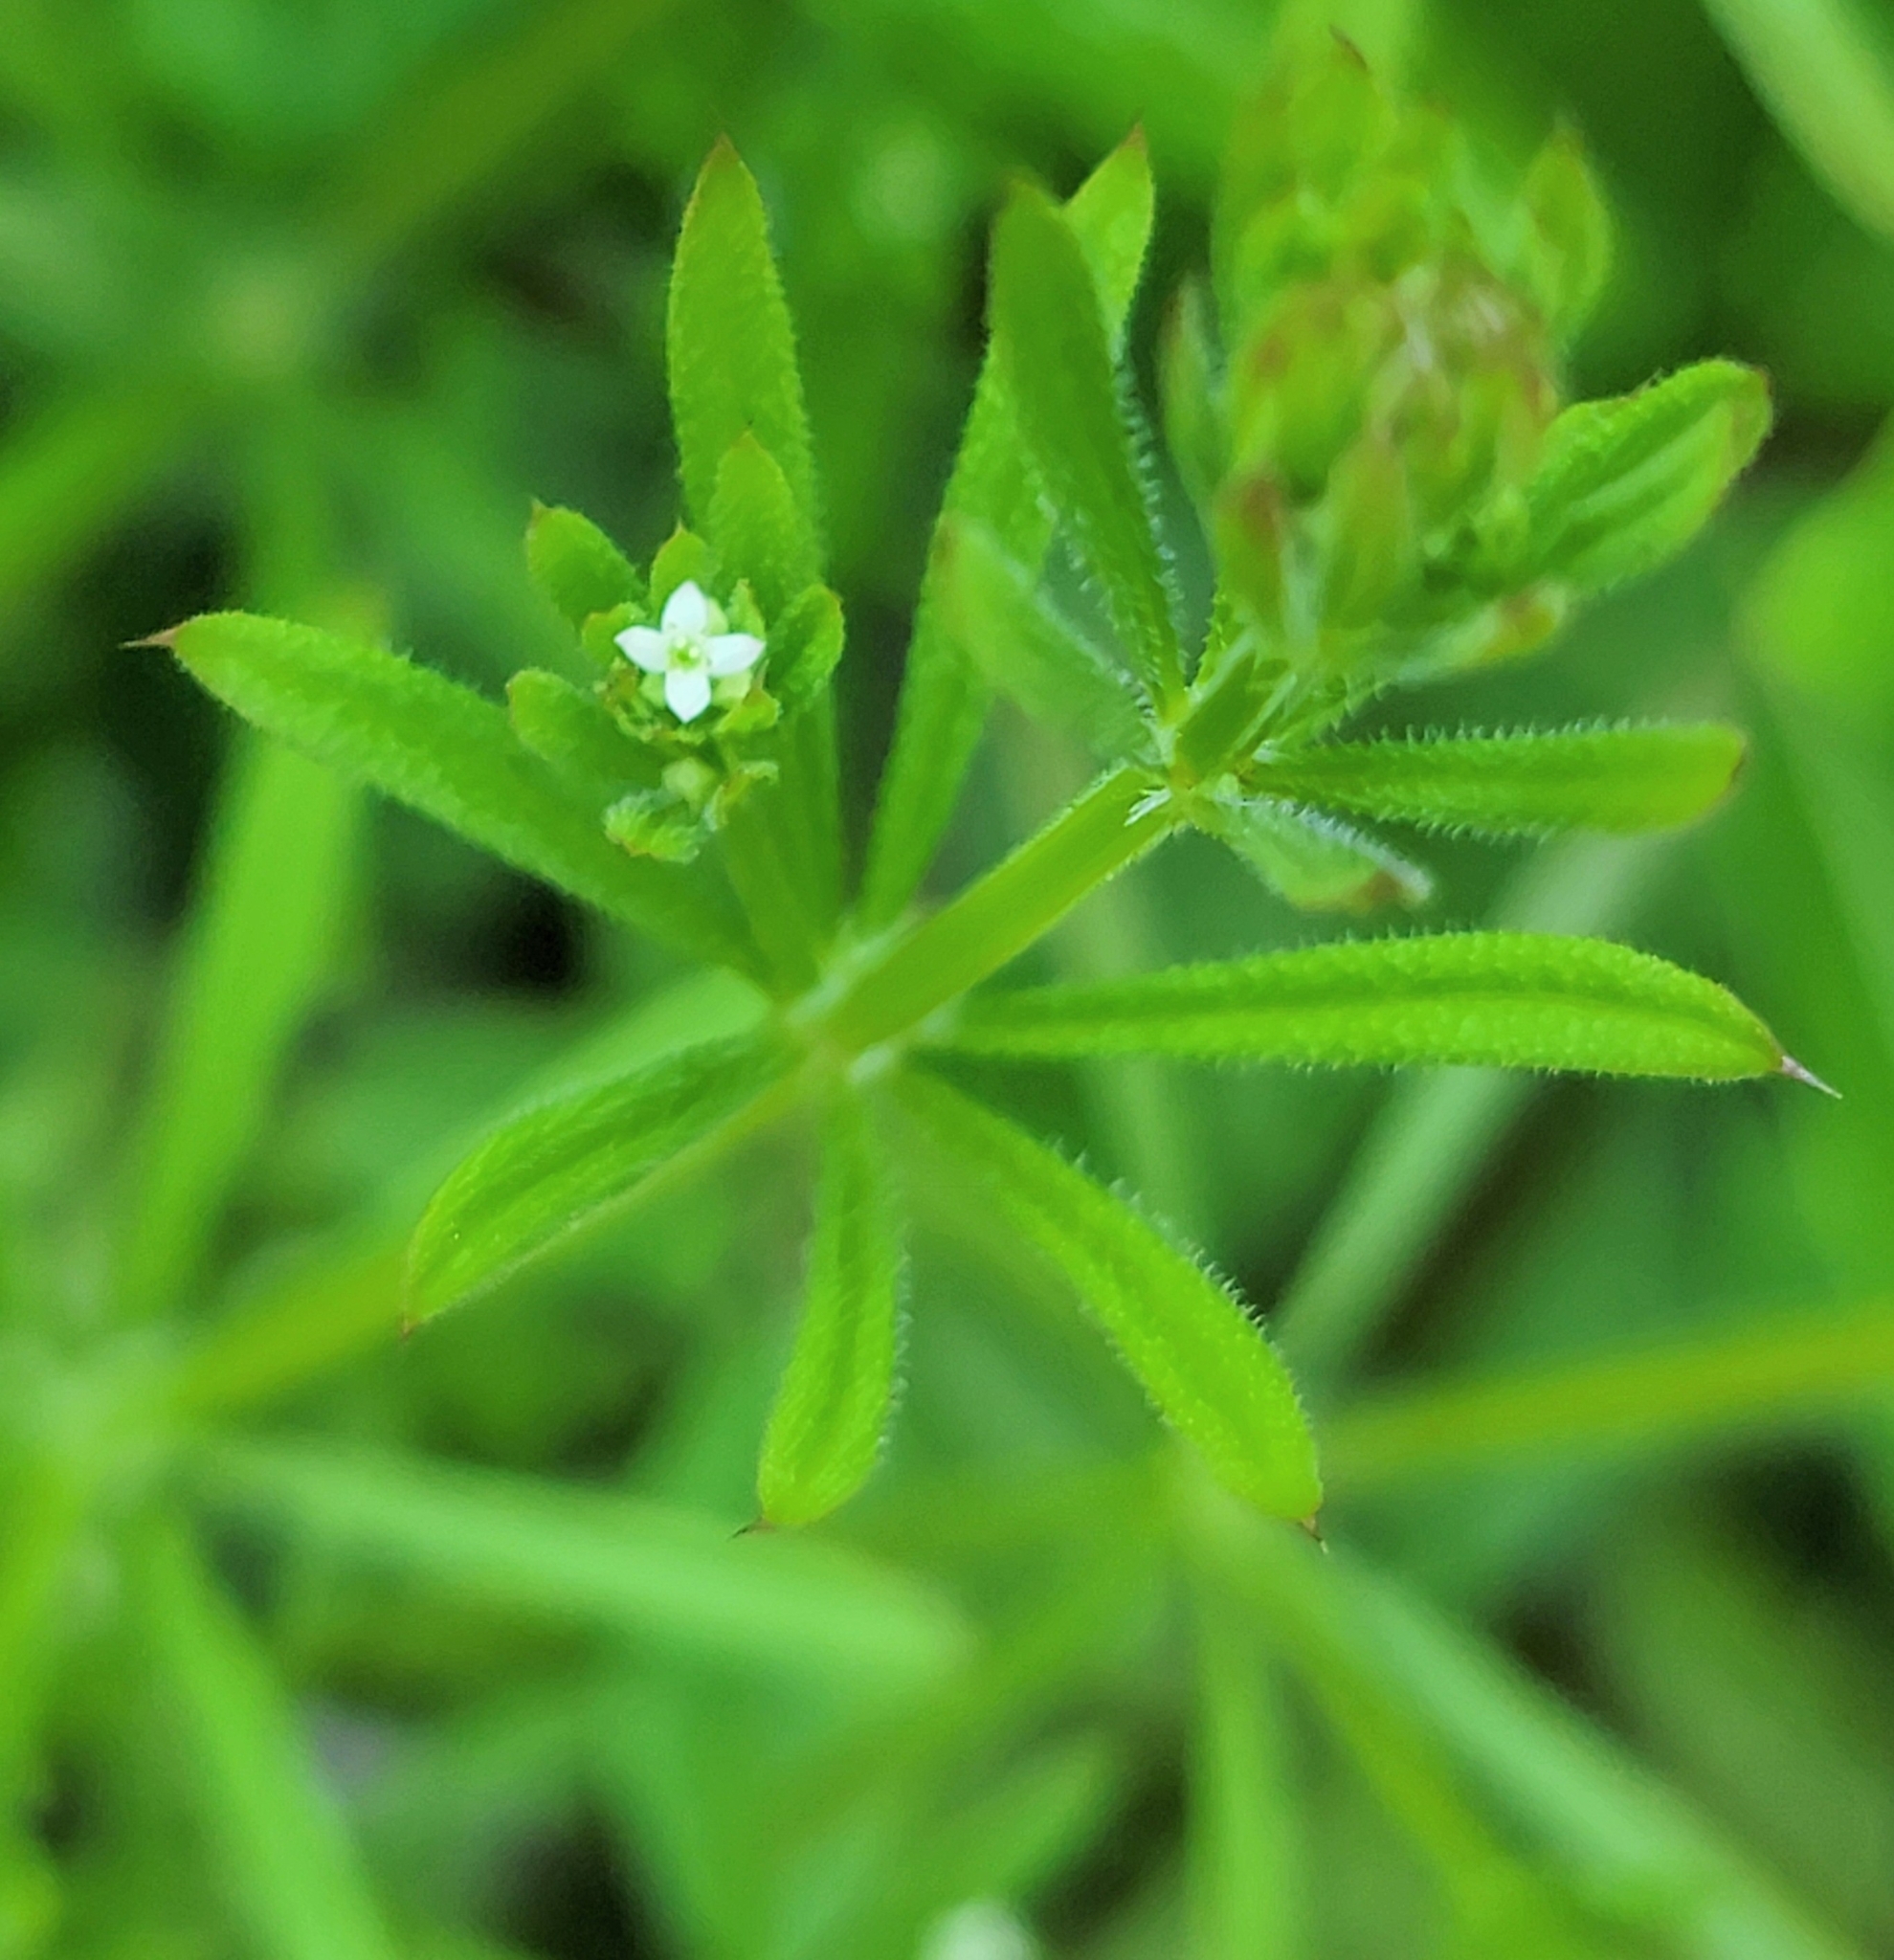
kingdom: Plantae
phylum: Tracheophyta
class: Magnoliopsida
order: Gentianales
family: Rubiaceae
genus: Galium
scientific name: Galium aparine
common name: Cleavers
